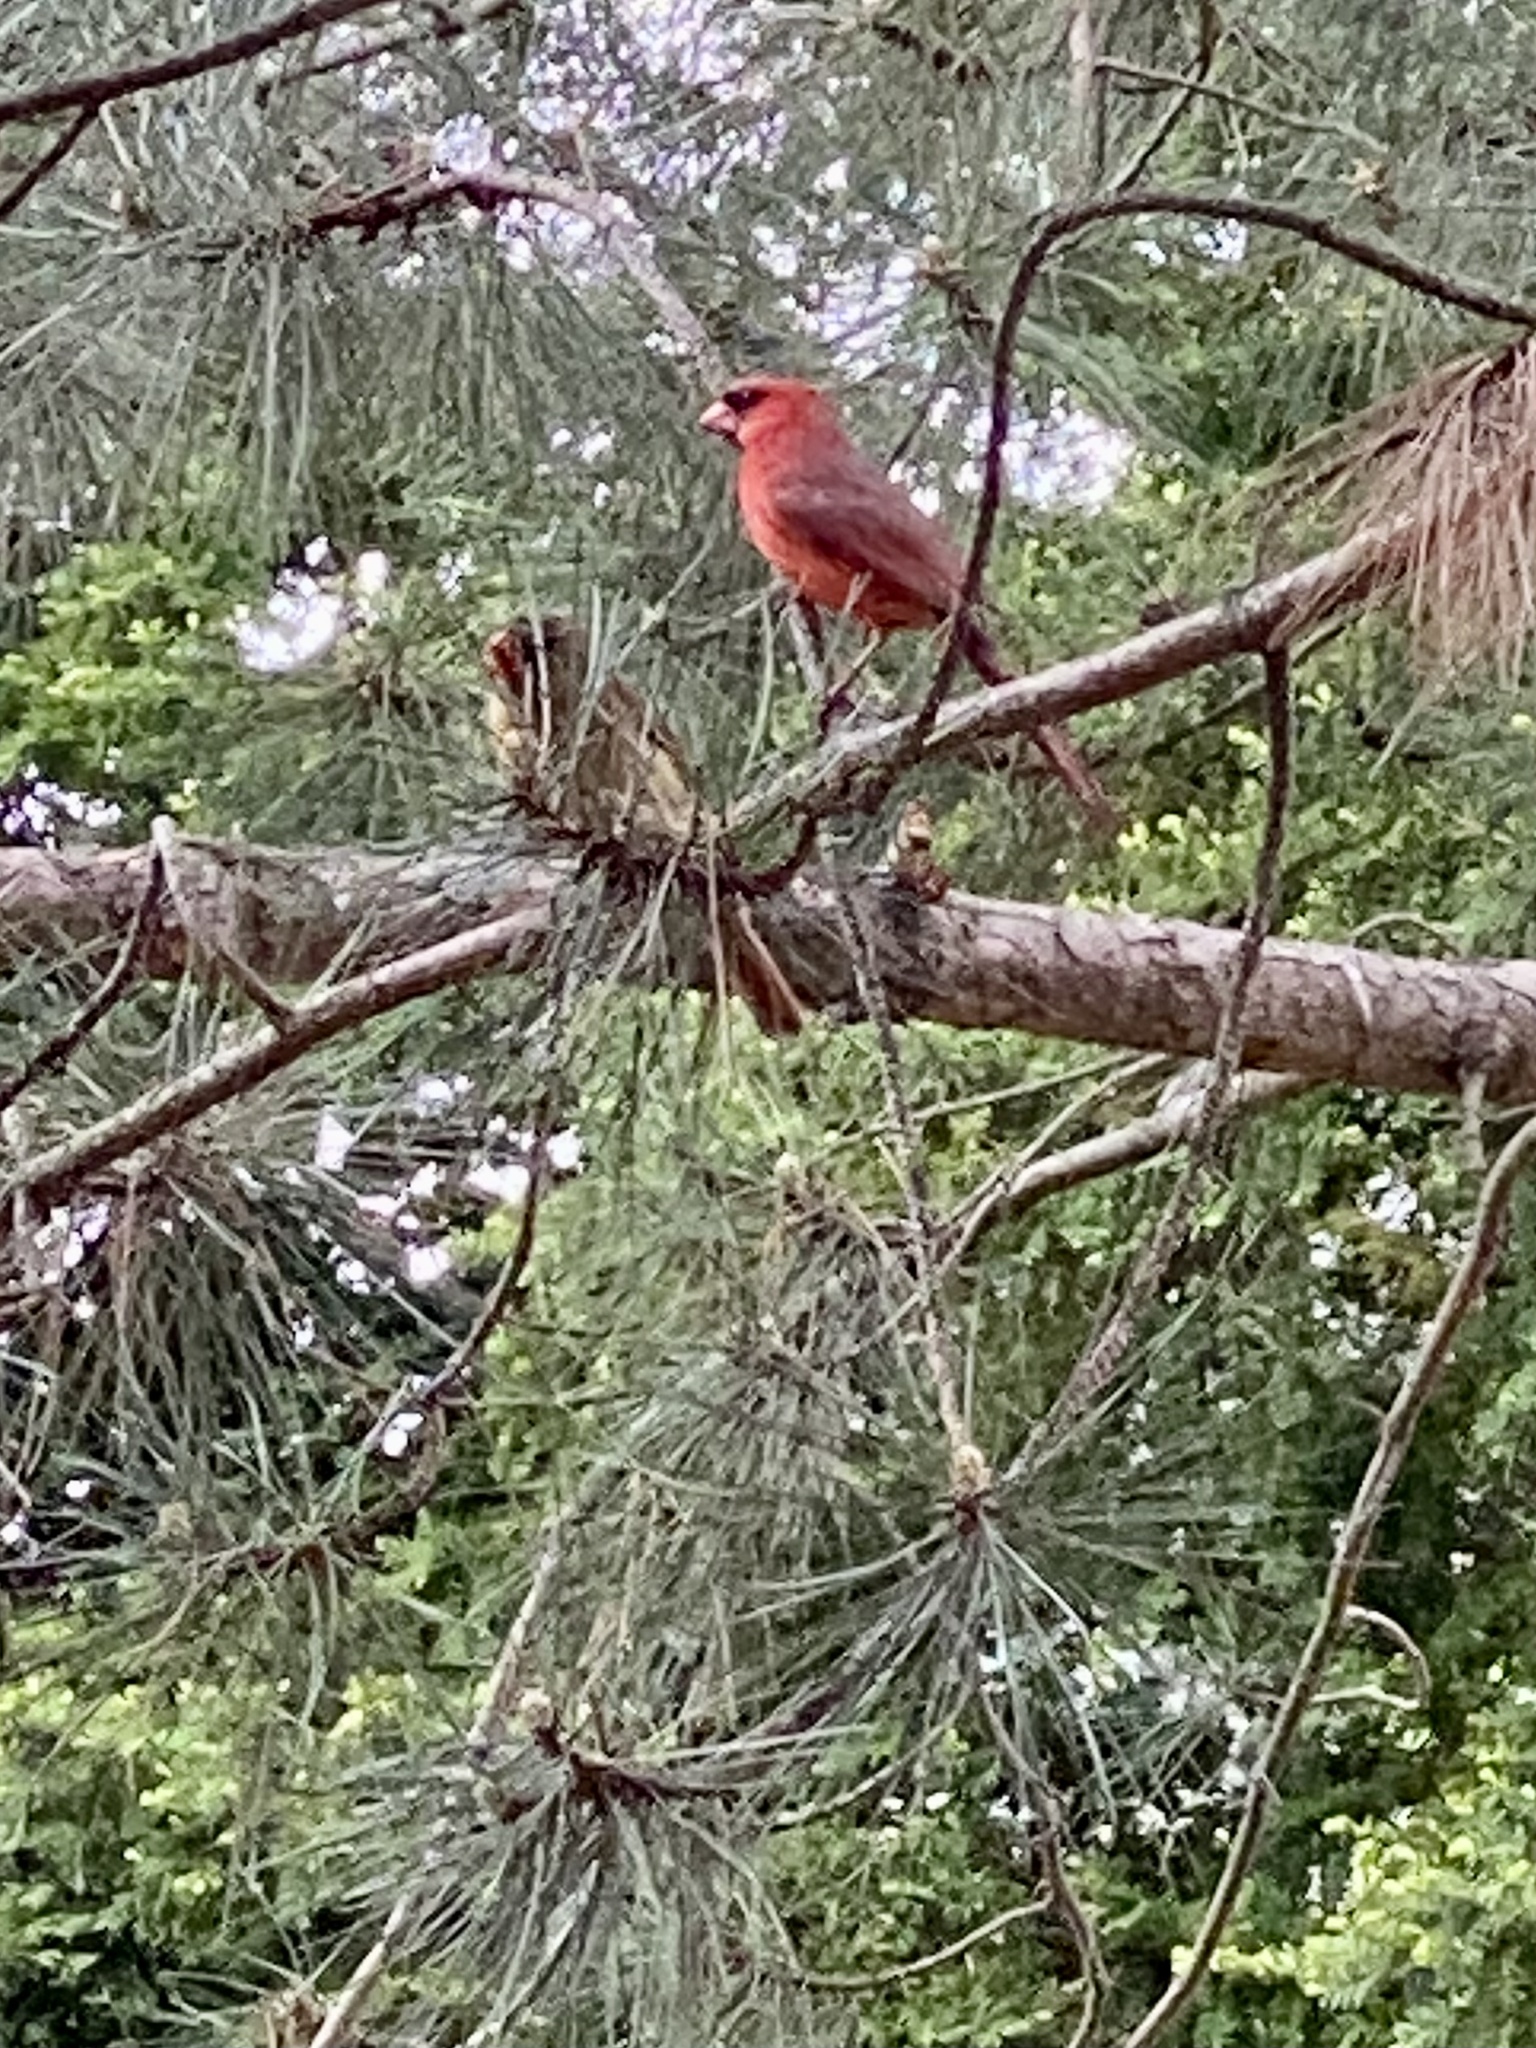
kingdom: Animalia
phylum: Chordata
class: Aves
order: Passeriformes
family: Cardinalidae
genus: Cardinalis
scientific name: Cardinalis cardinalis
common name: Northern cardinal
